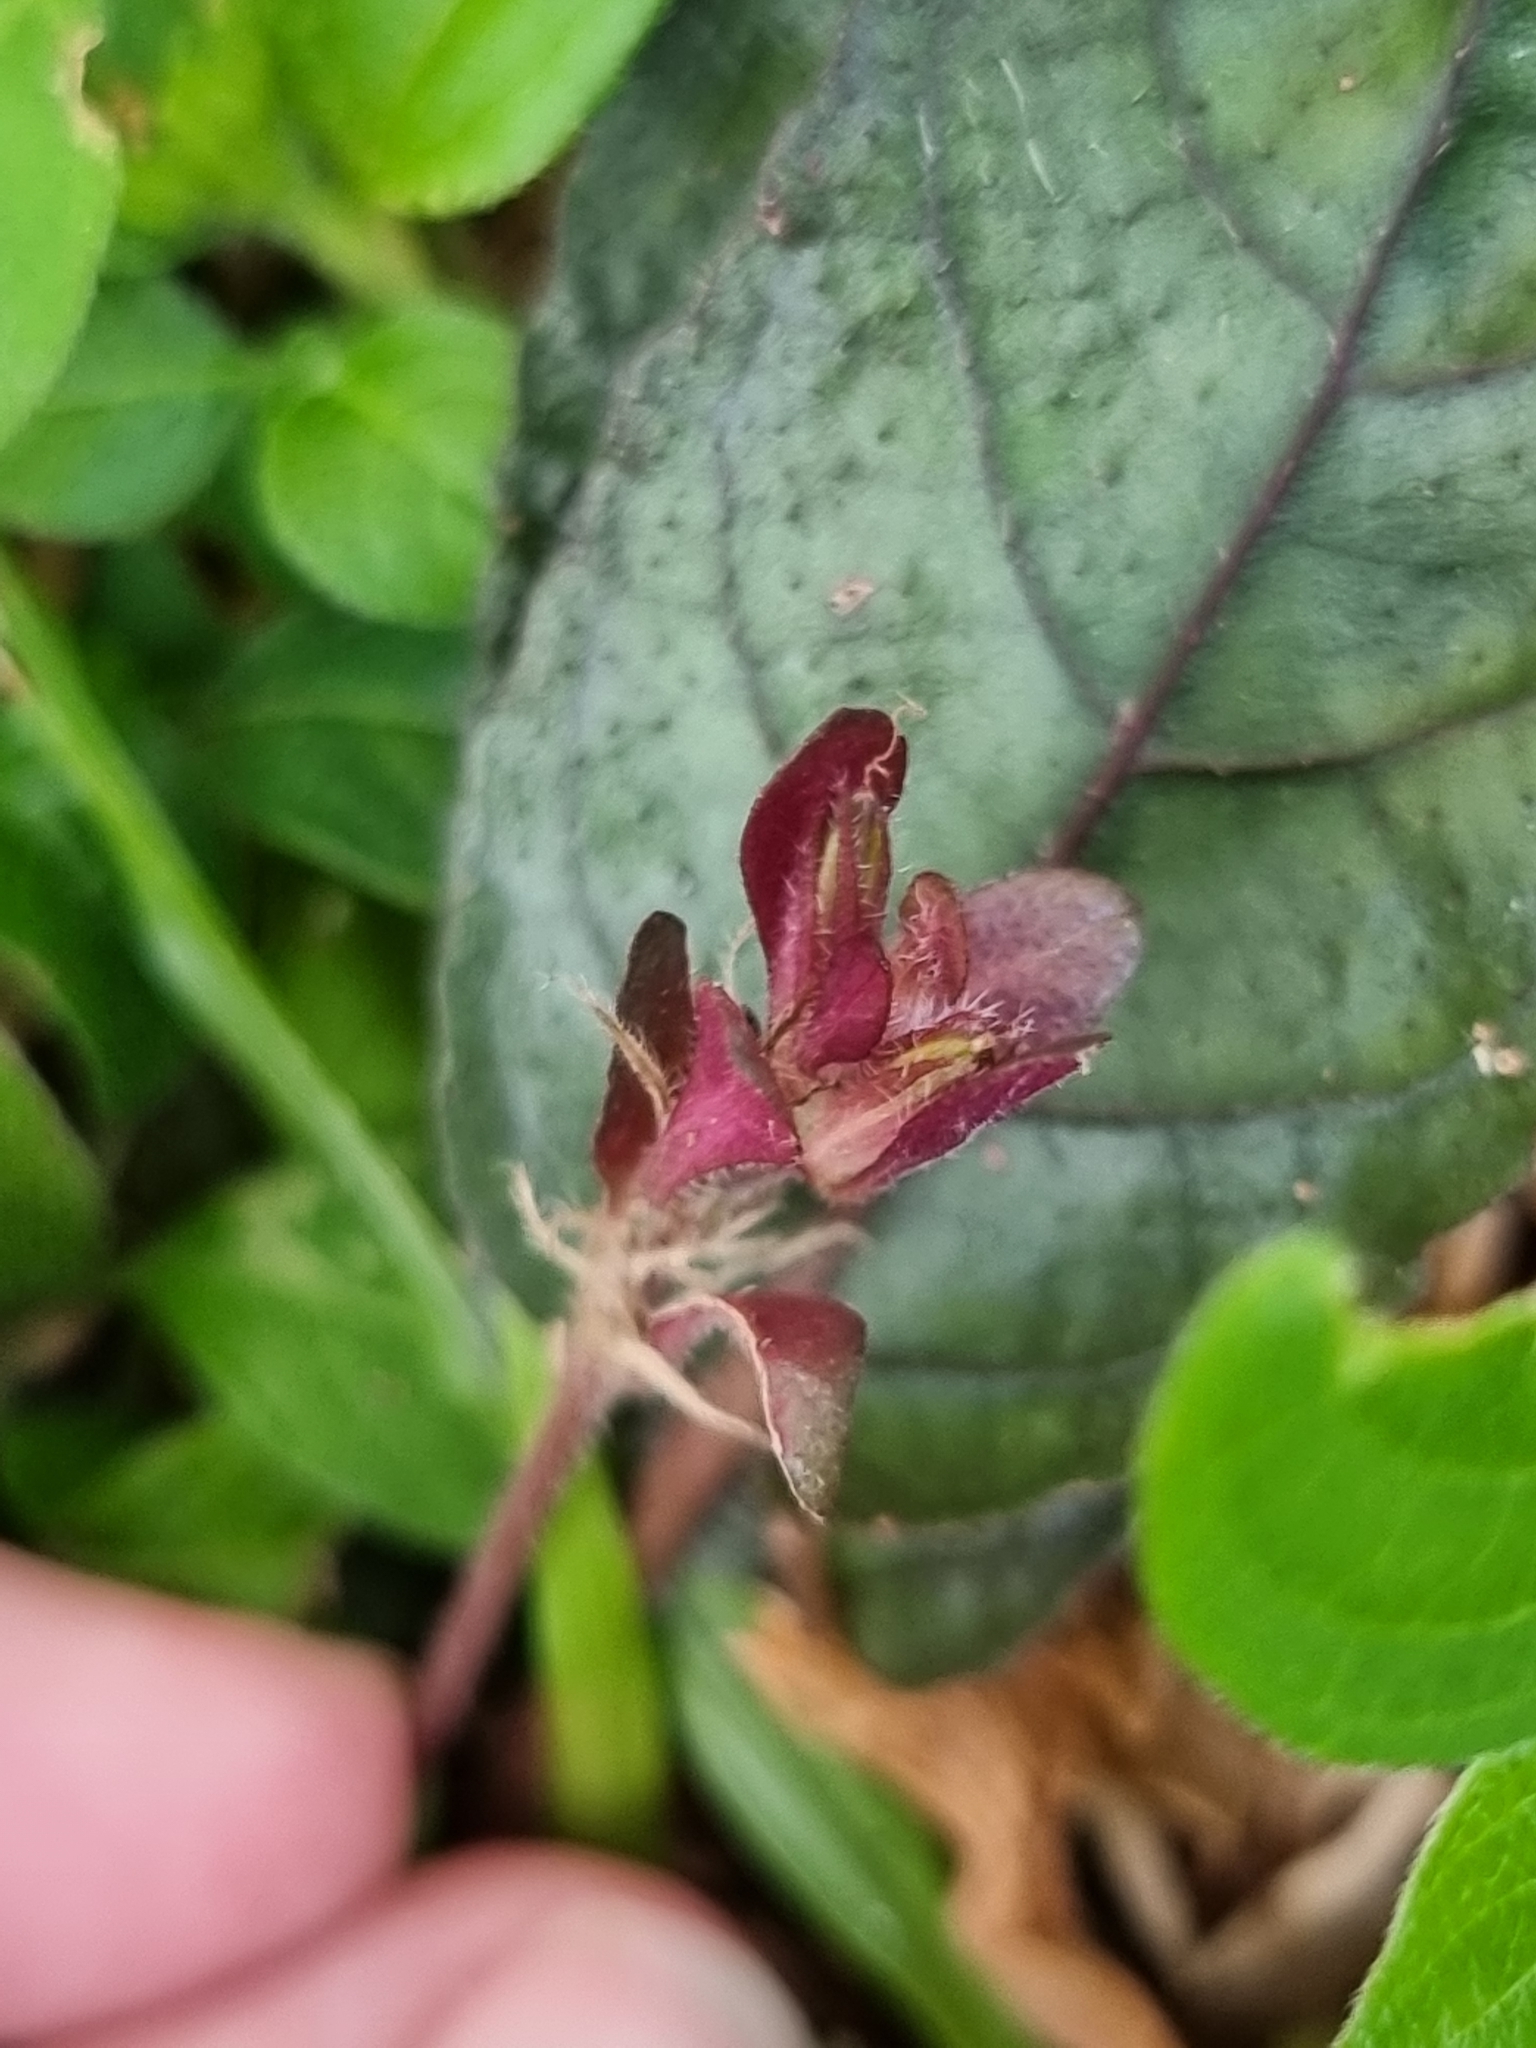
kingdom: Plantae
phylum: Tracheophyta
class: Magnoliopsida
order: Lamiales
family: Acanthaceae
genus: Strobilanthes
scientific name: Strobilanthes reptans
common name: Acanthaceae
